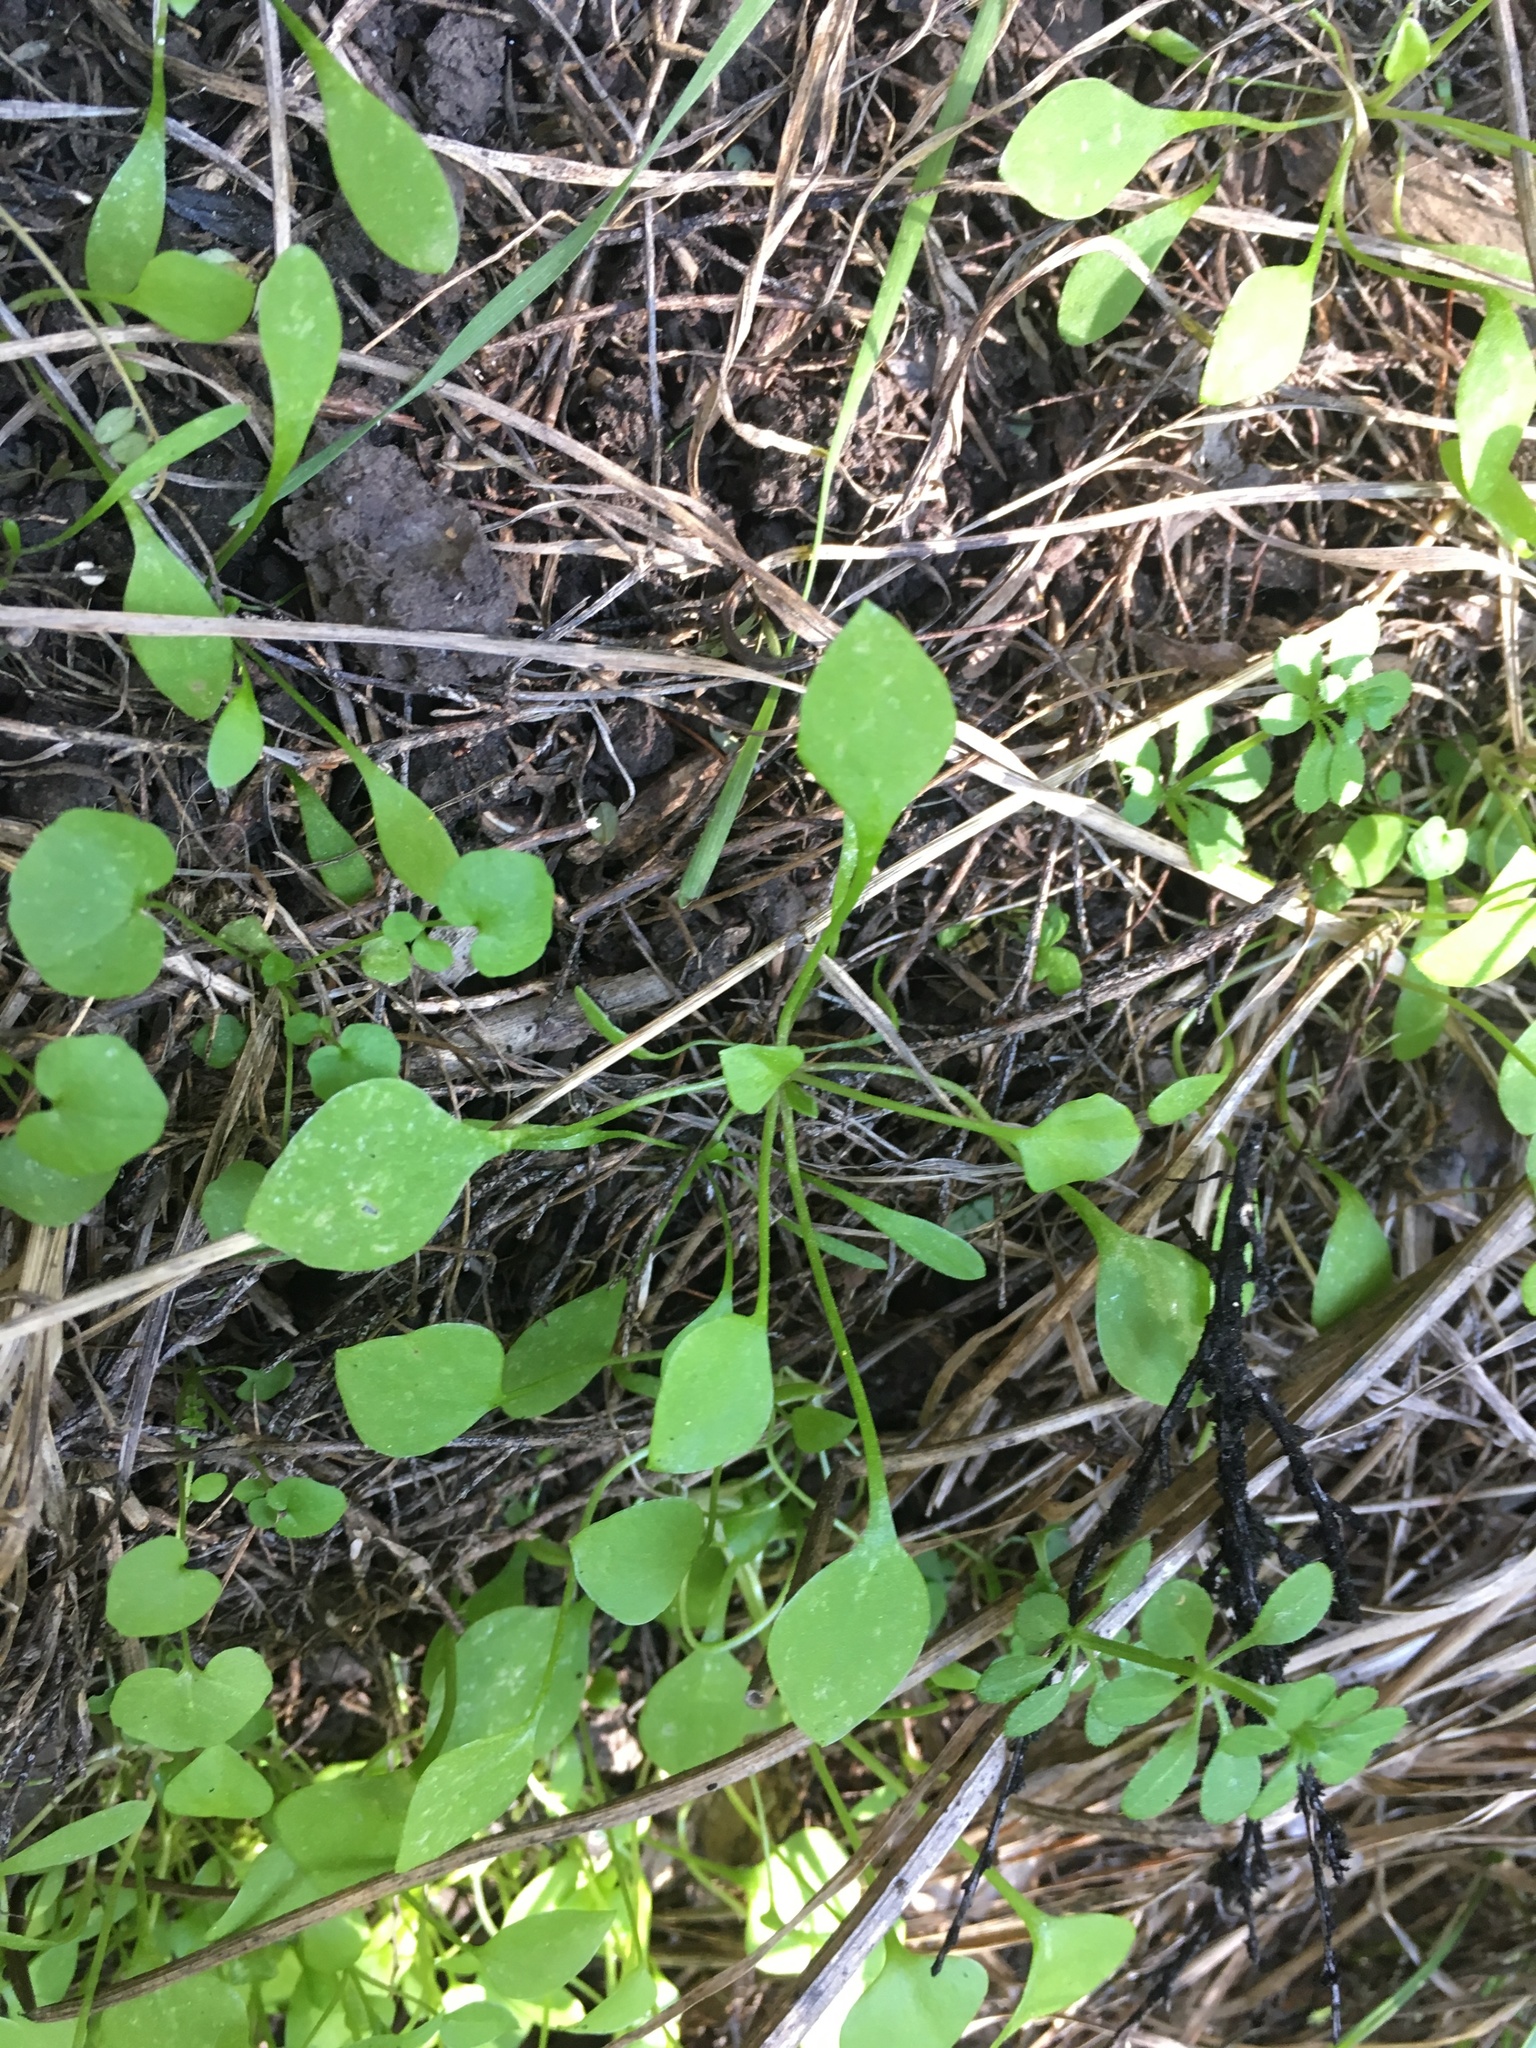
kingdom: Plantae
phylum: Tracheophyta
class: Magnoliopsida
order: Caryophyllales
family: Montiaceae
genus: Claytonia
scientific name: Claytonia perfoliata
